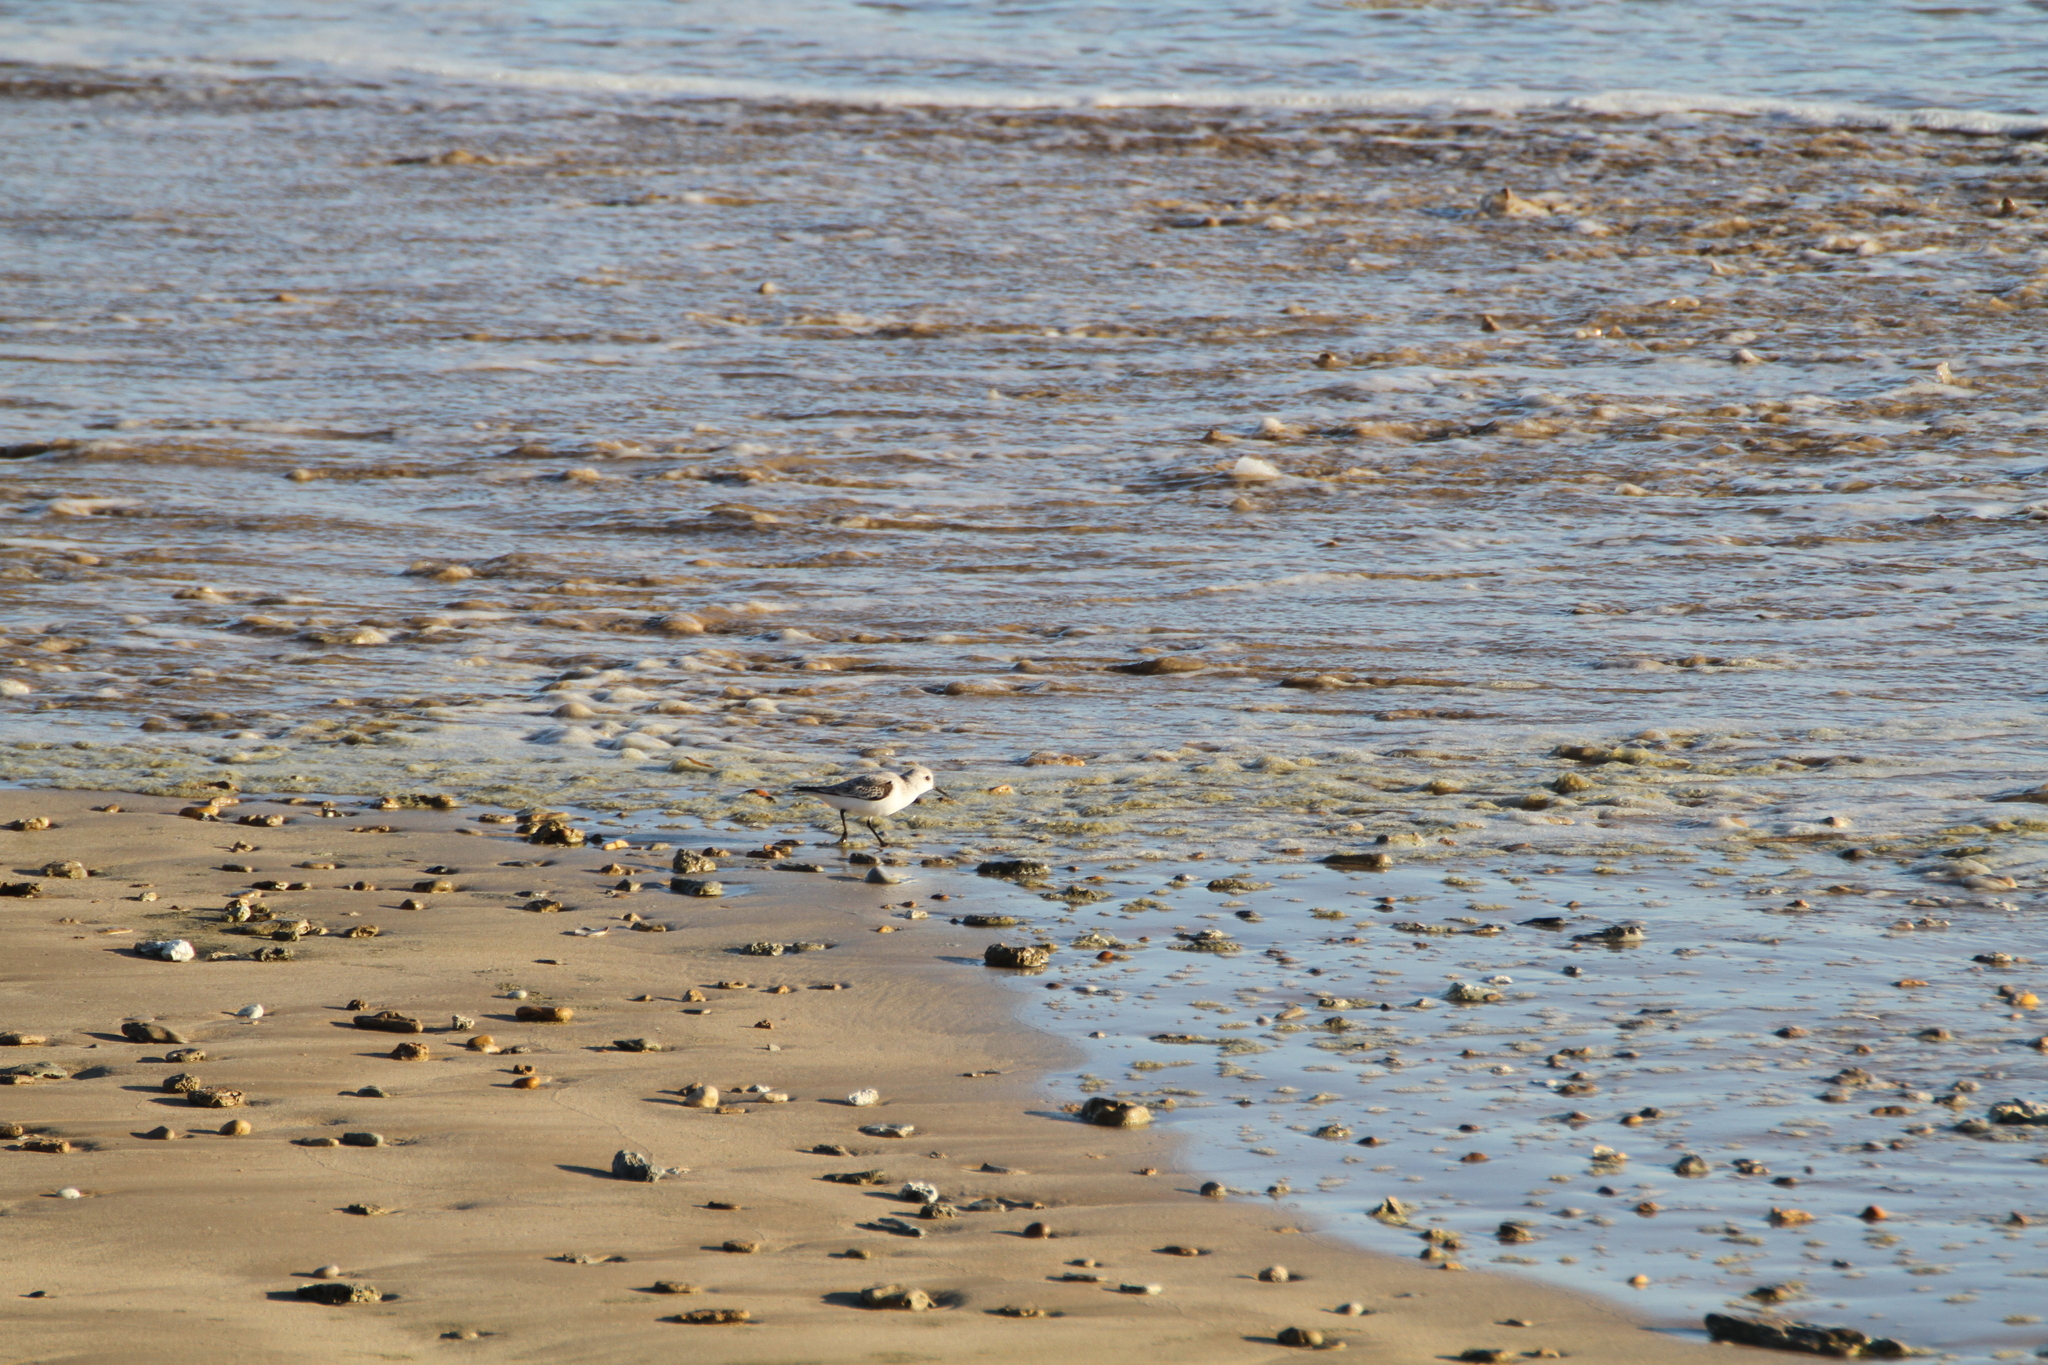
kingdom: Animalia
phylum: Chordata
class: Aves
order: Charadriiformes
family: Scolopacidae
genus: Calidris
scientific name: Calidris alba
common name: Sanderling
